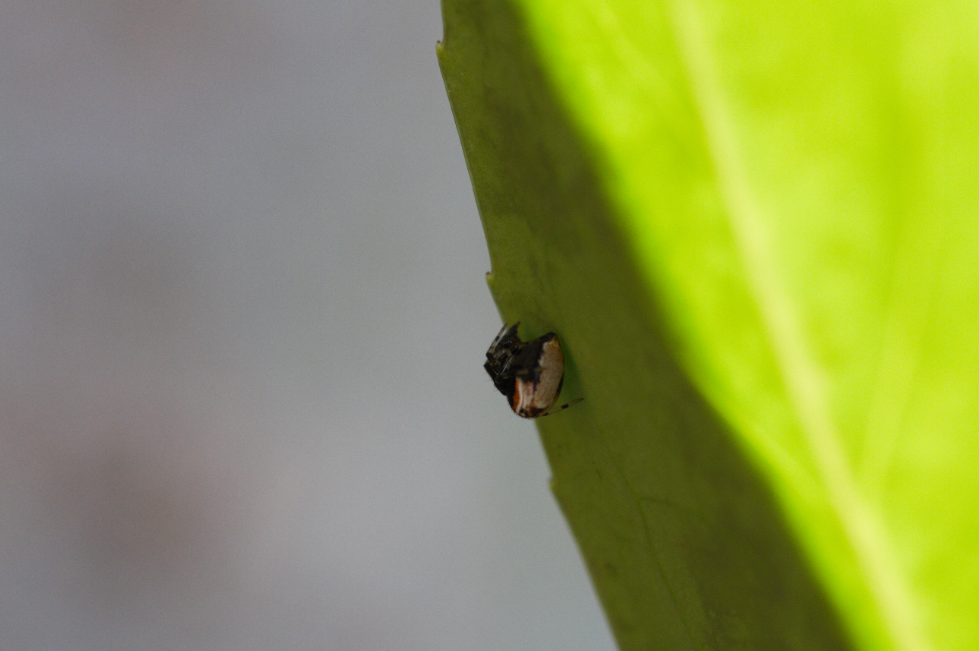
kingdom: Animalia
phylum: Arthropoda
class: Arachnida
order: Araneae
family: Theridiidae
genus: Parasteatoda
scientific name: Parasteatoda lunata
